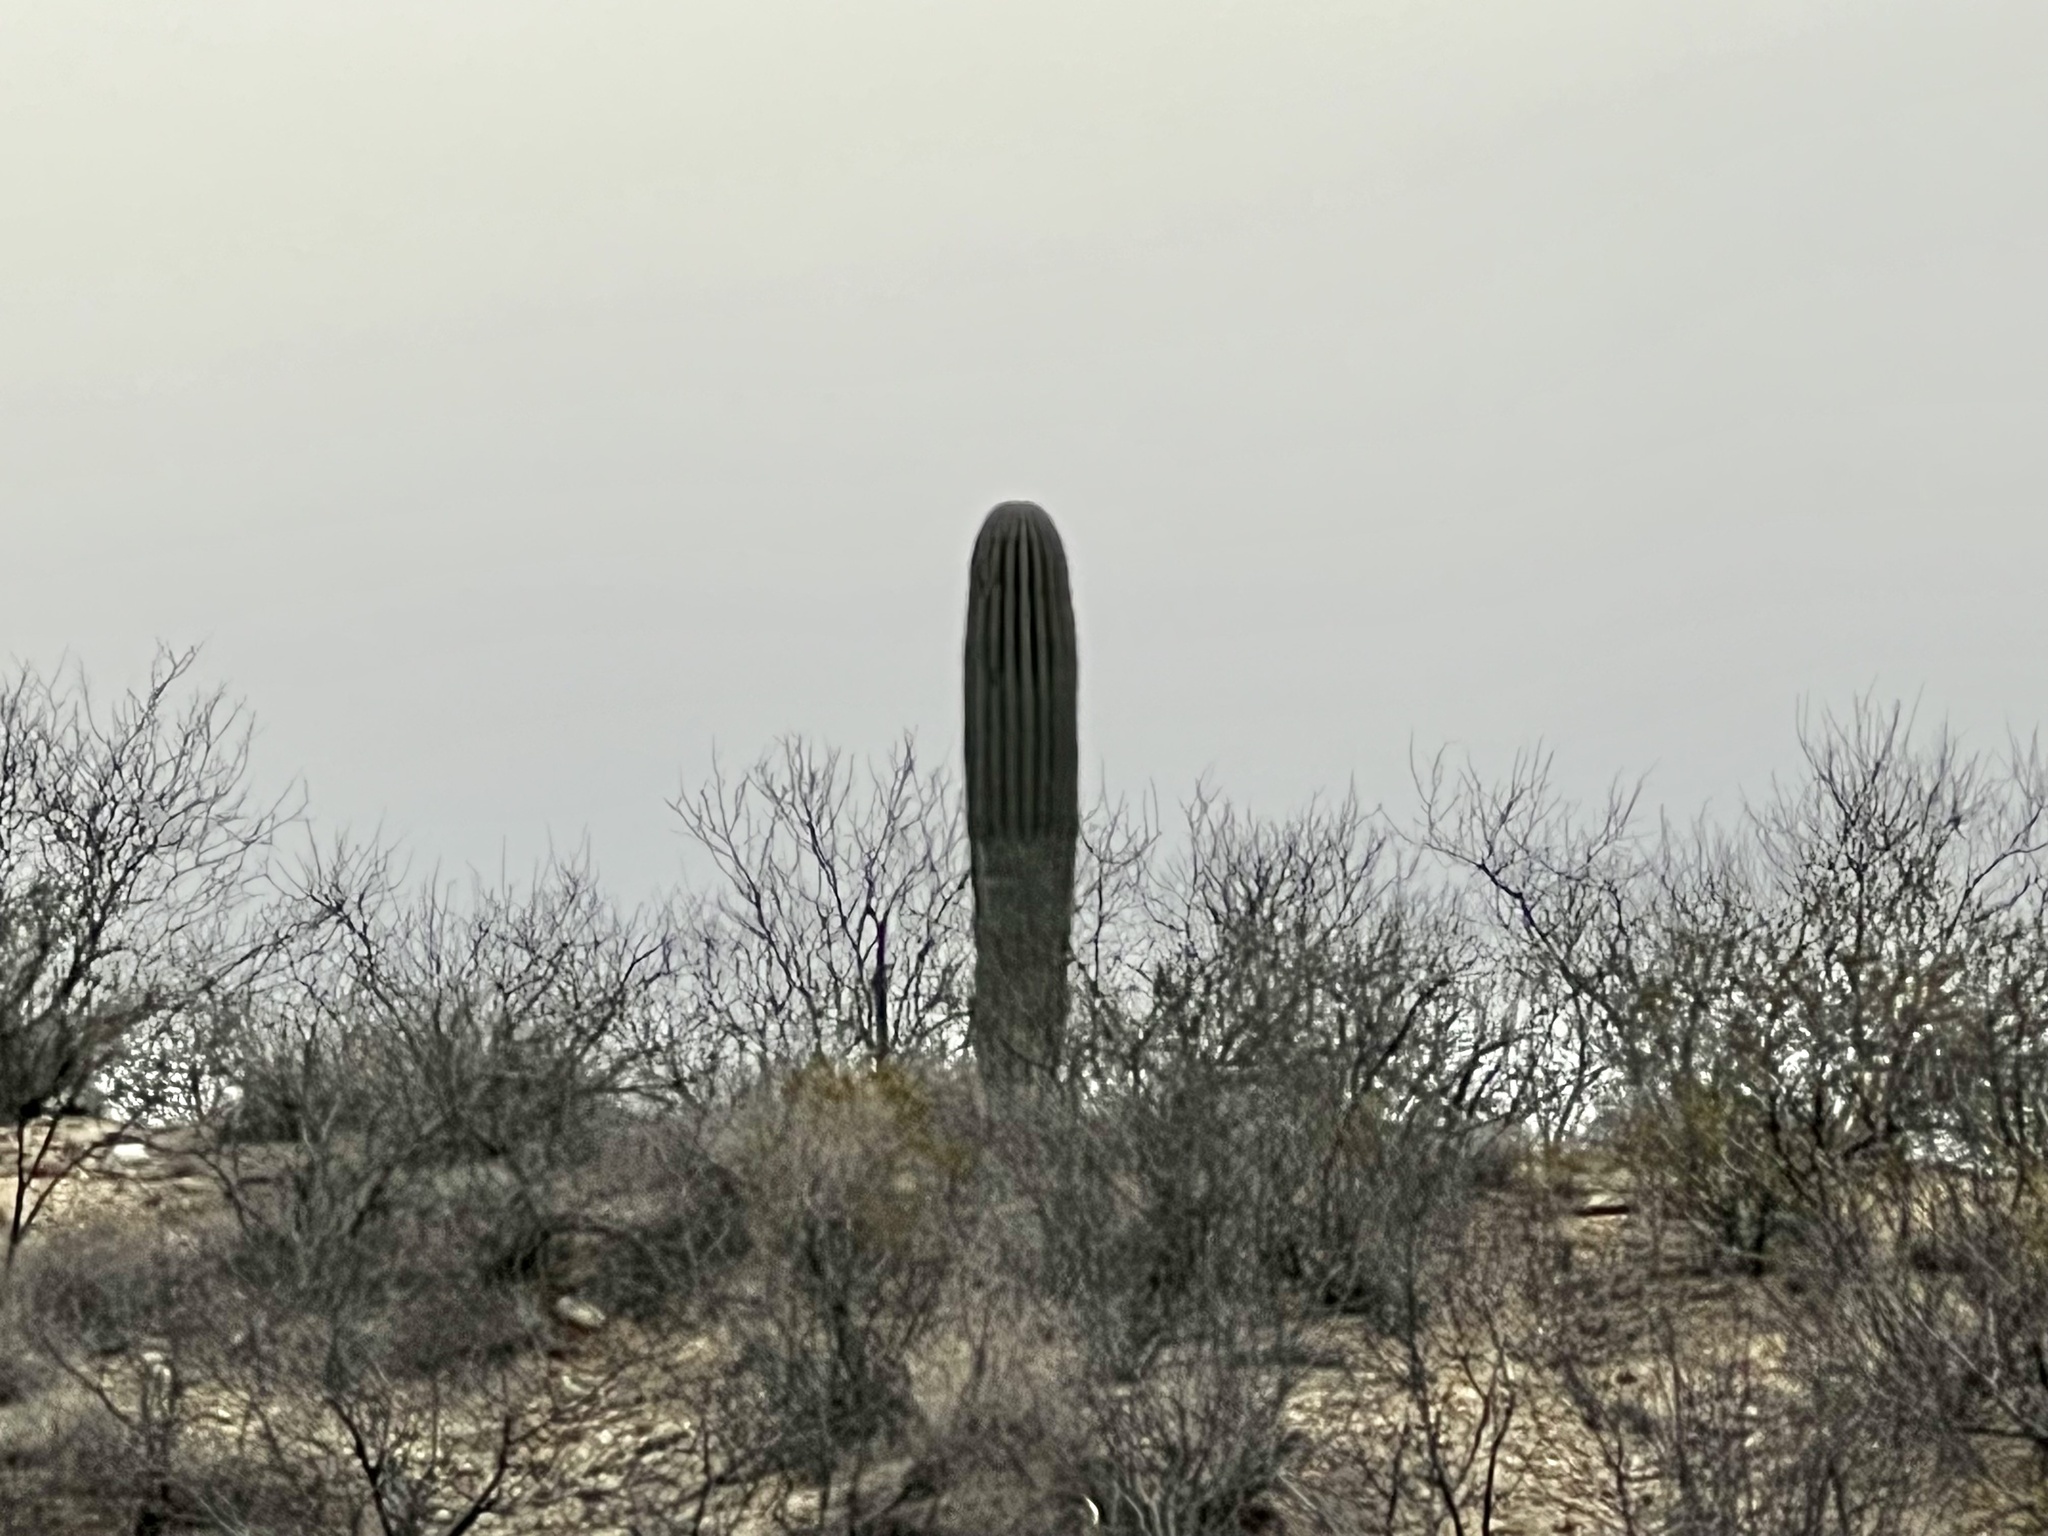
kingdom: Plantae
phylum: Tracheophyta
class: Magnoliopsida
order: Caryophyllales
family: Cactaceae
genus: Carnegiea
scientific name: Carnegiea gigantea
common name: Saguaro
